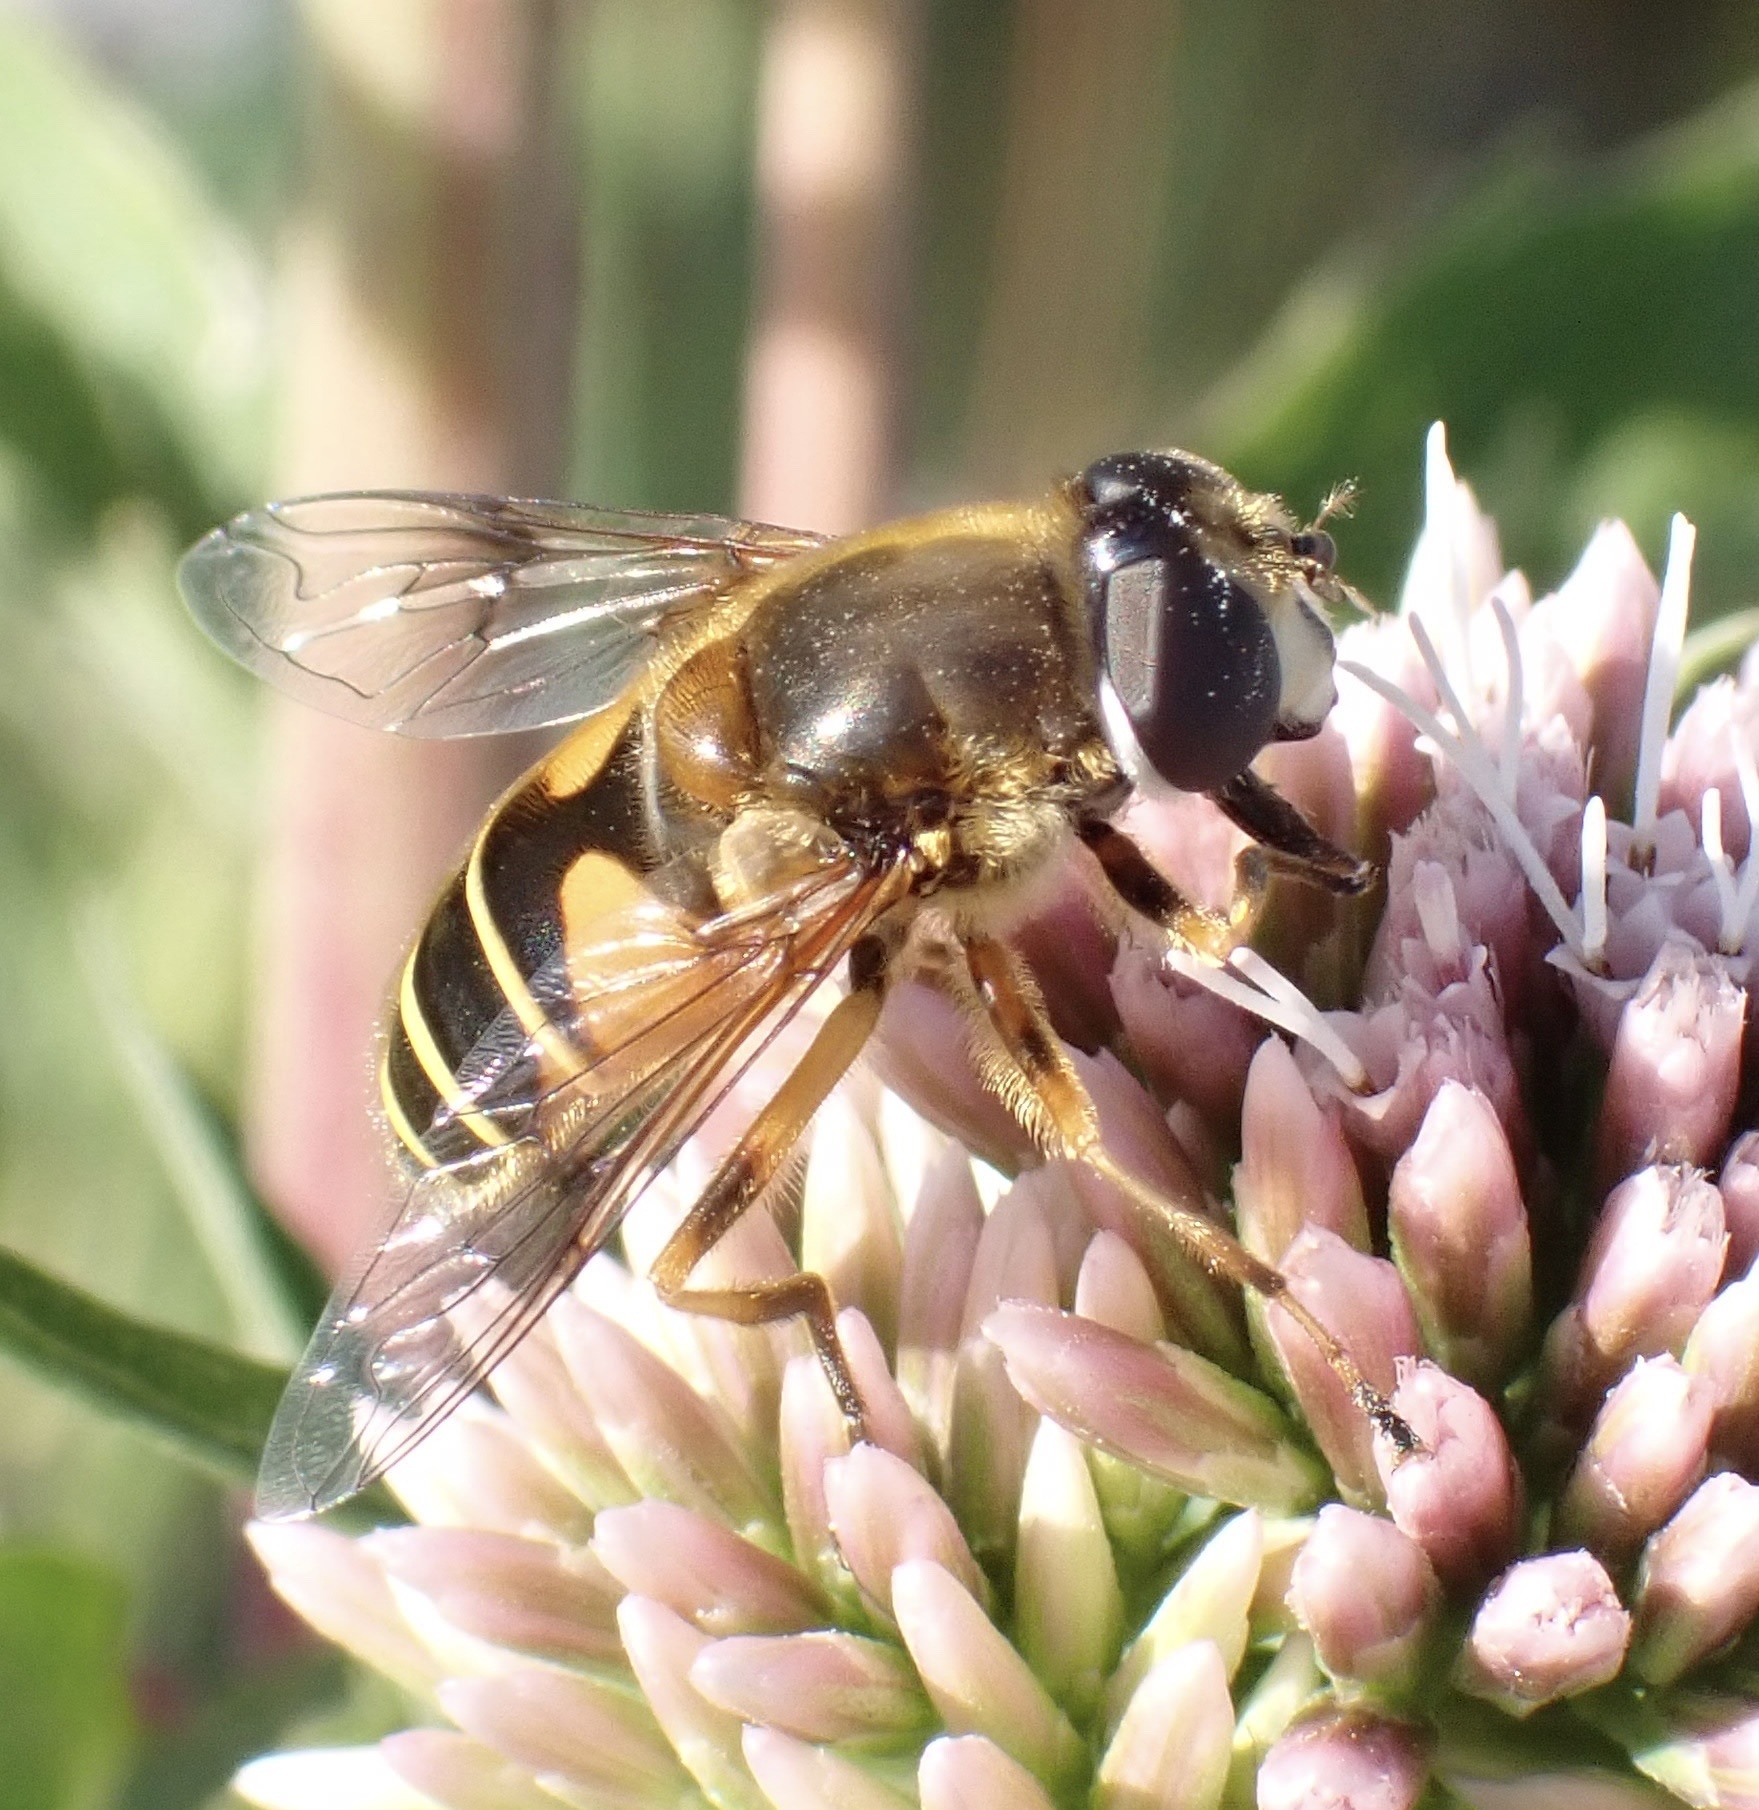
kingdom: Animalia
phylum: Arthropoda
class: Insecta
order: Diptera
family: Syrphidae
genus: Cheilosia
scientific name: Cheilosia morio
